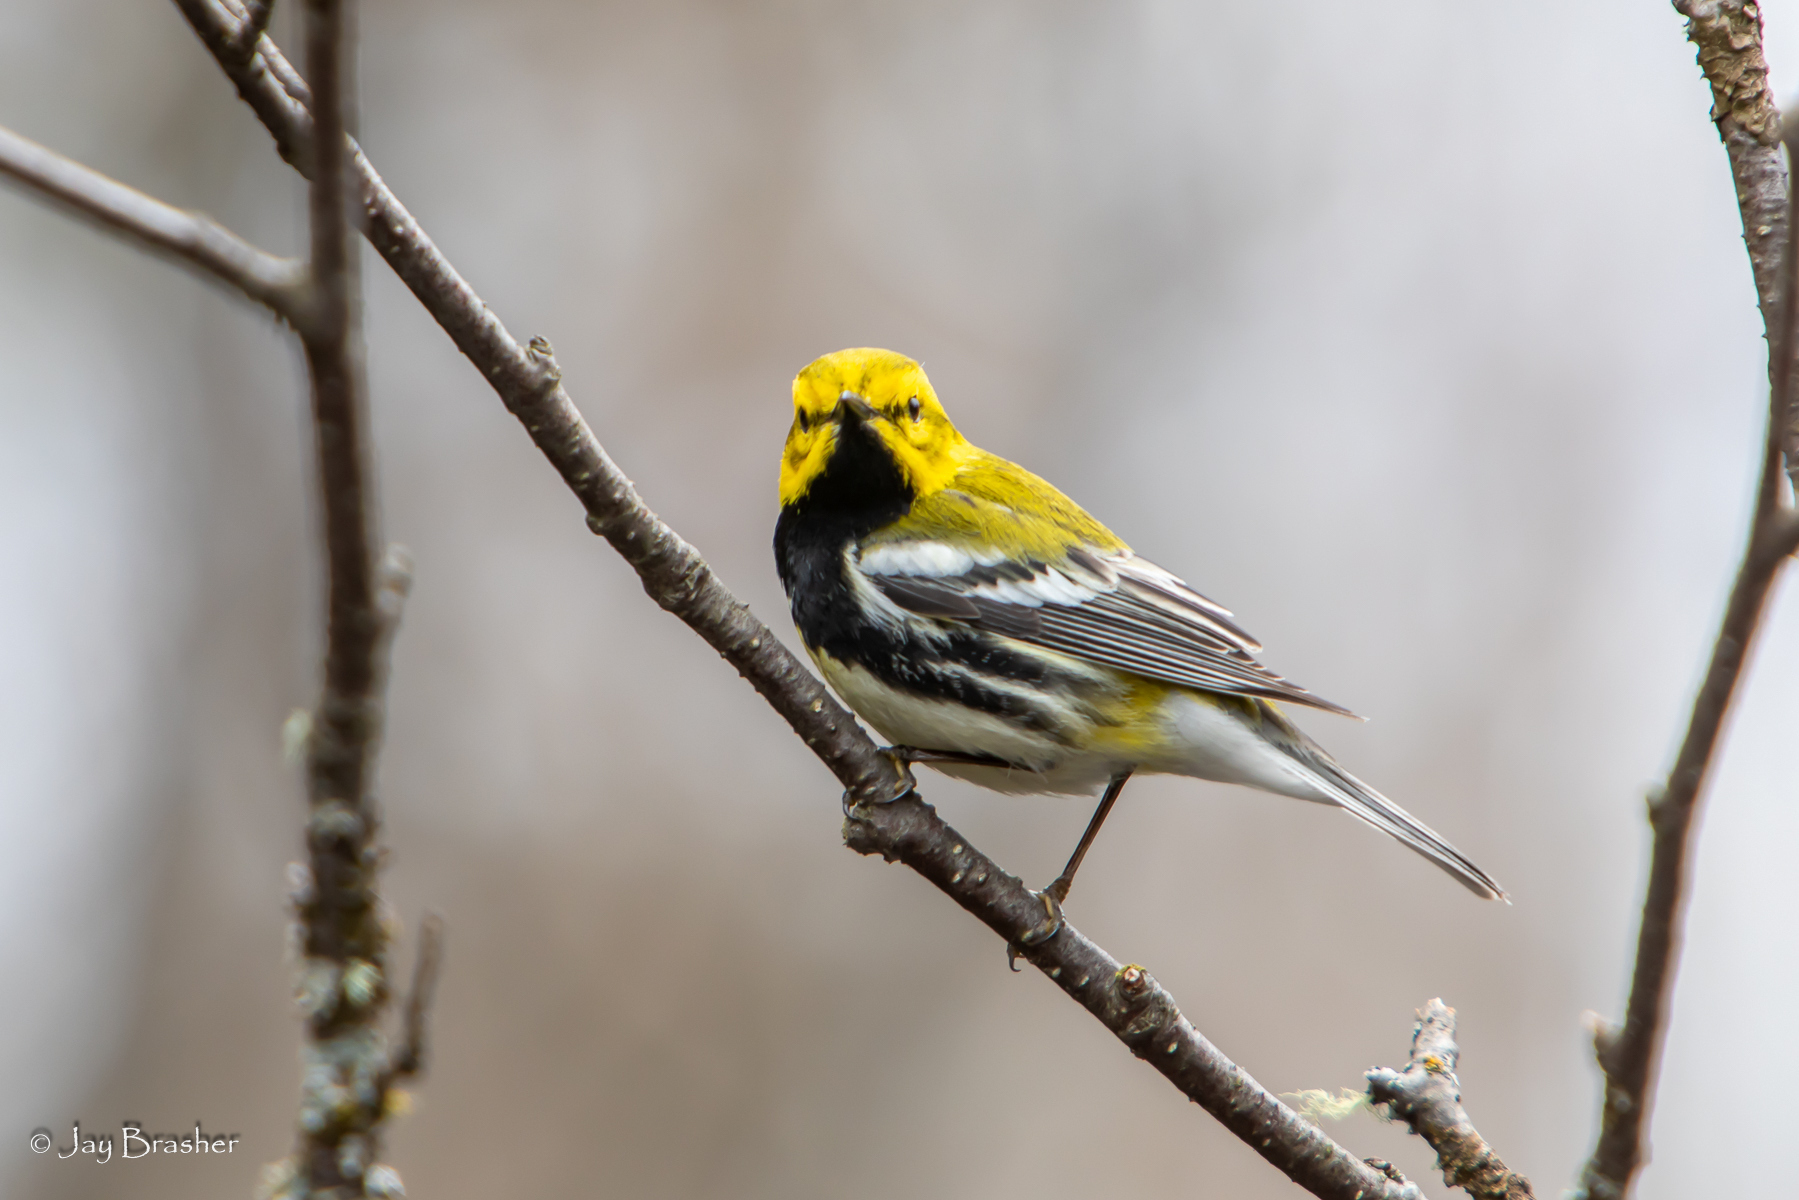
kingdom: Animalia
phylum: Chordata
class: Aves
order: Passeriformes
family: Parulidae
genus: Setophaga
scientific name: Setophaga virens
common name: Black-throated green warbler
